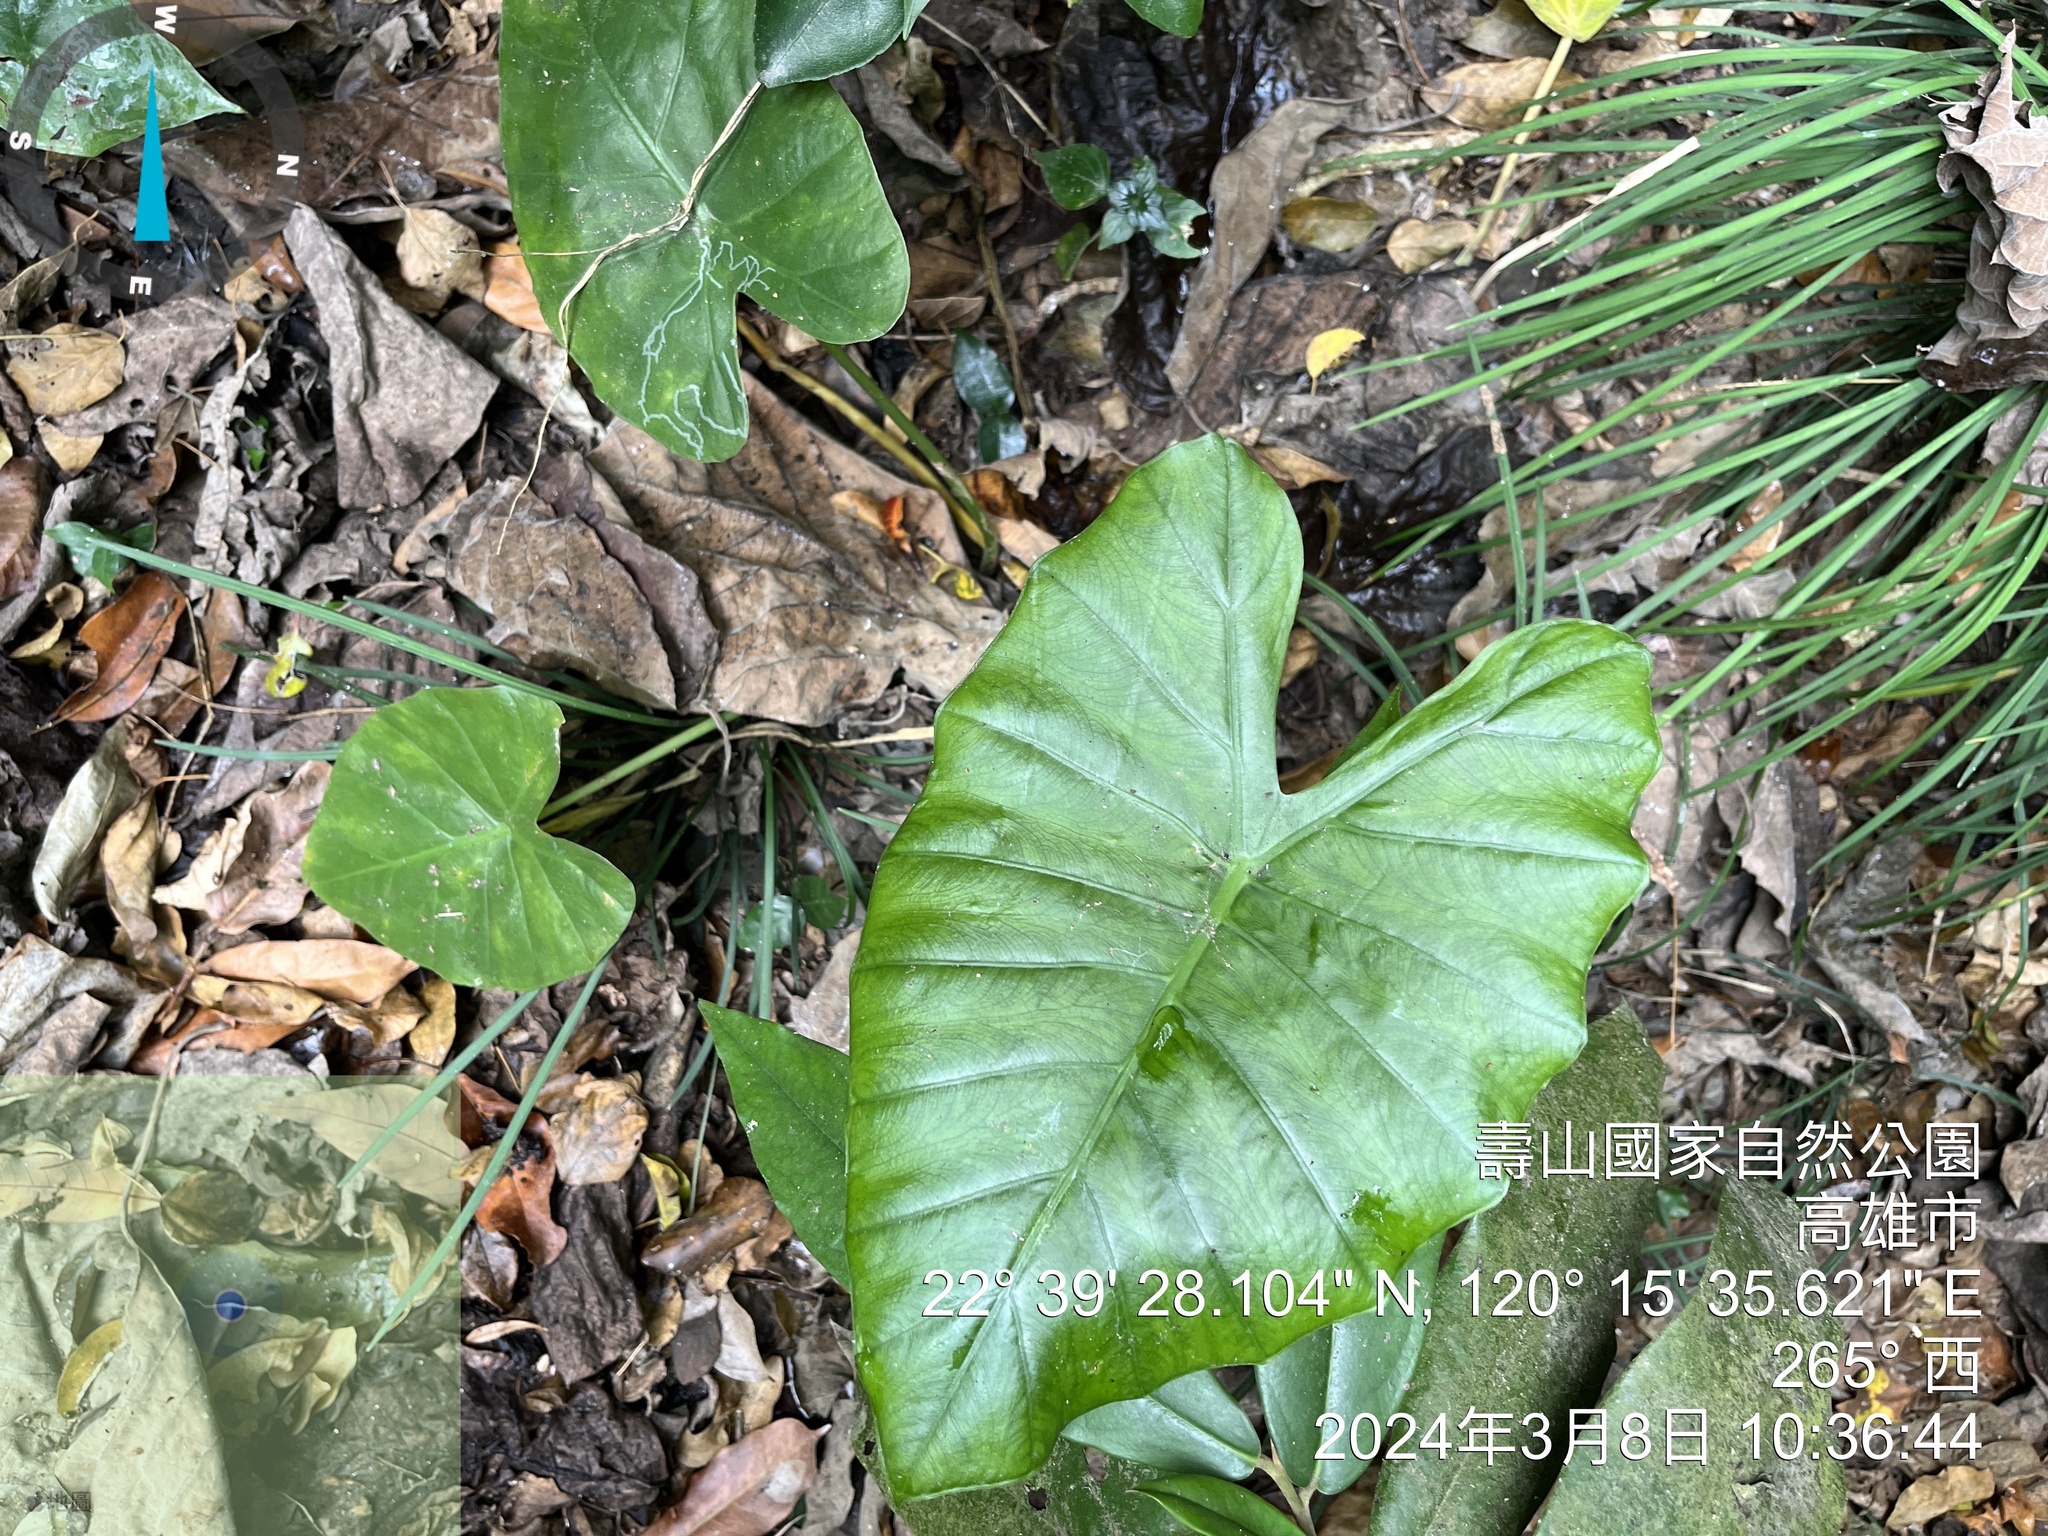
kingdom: Plantae
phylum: Tracheophyta
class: Liliopsida
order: Alismatales
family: Araceae
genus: Alocasia
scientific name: Alocasia odora
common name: Asian taro
